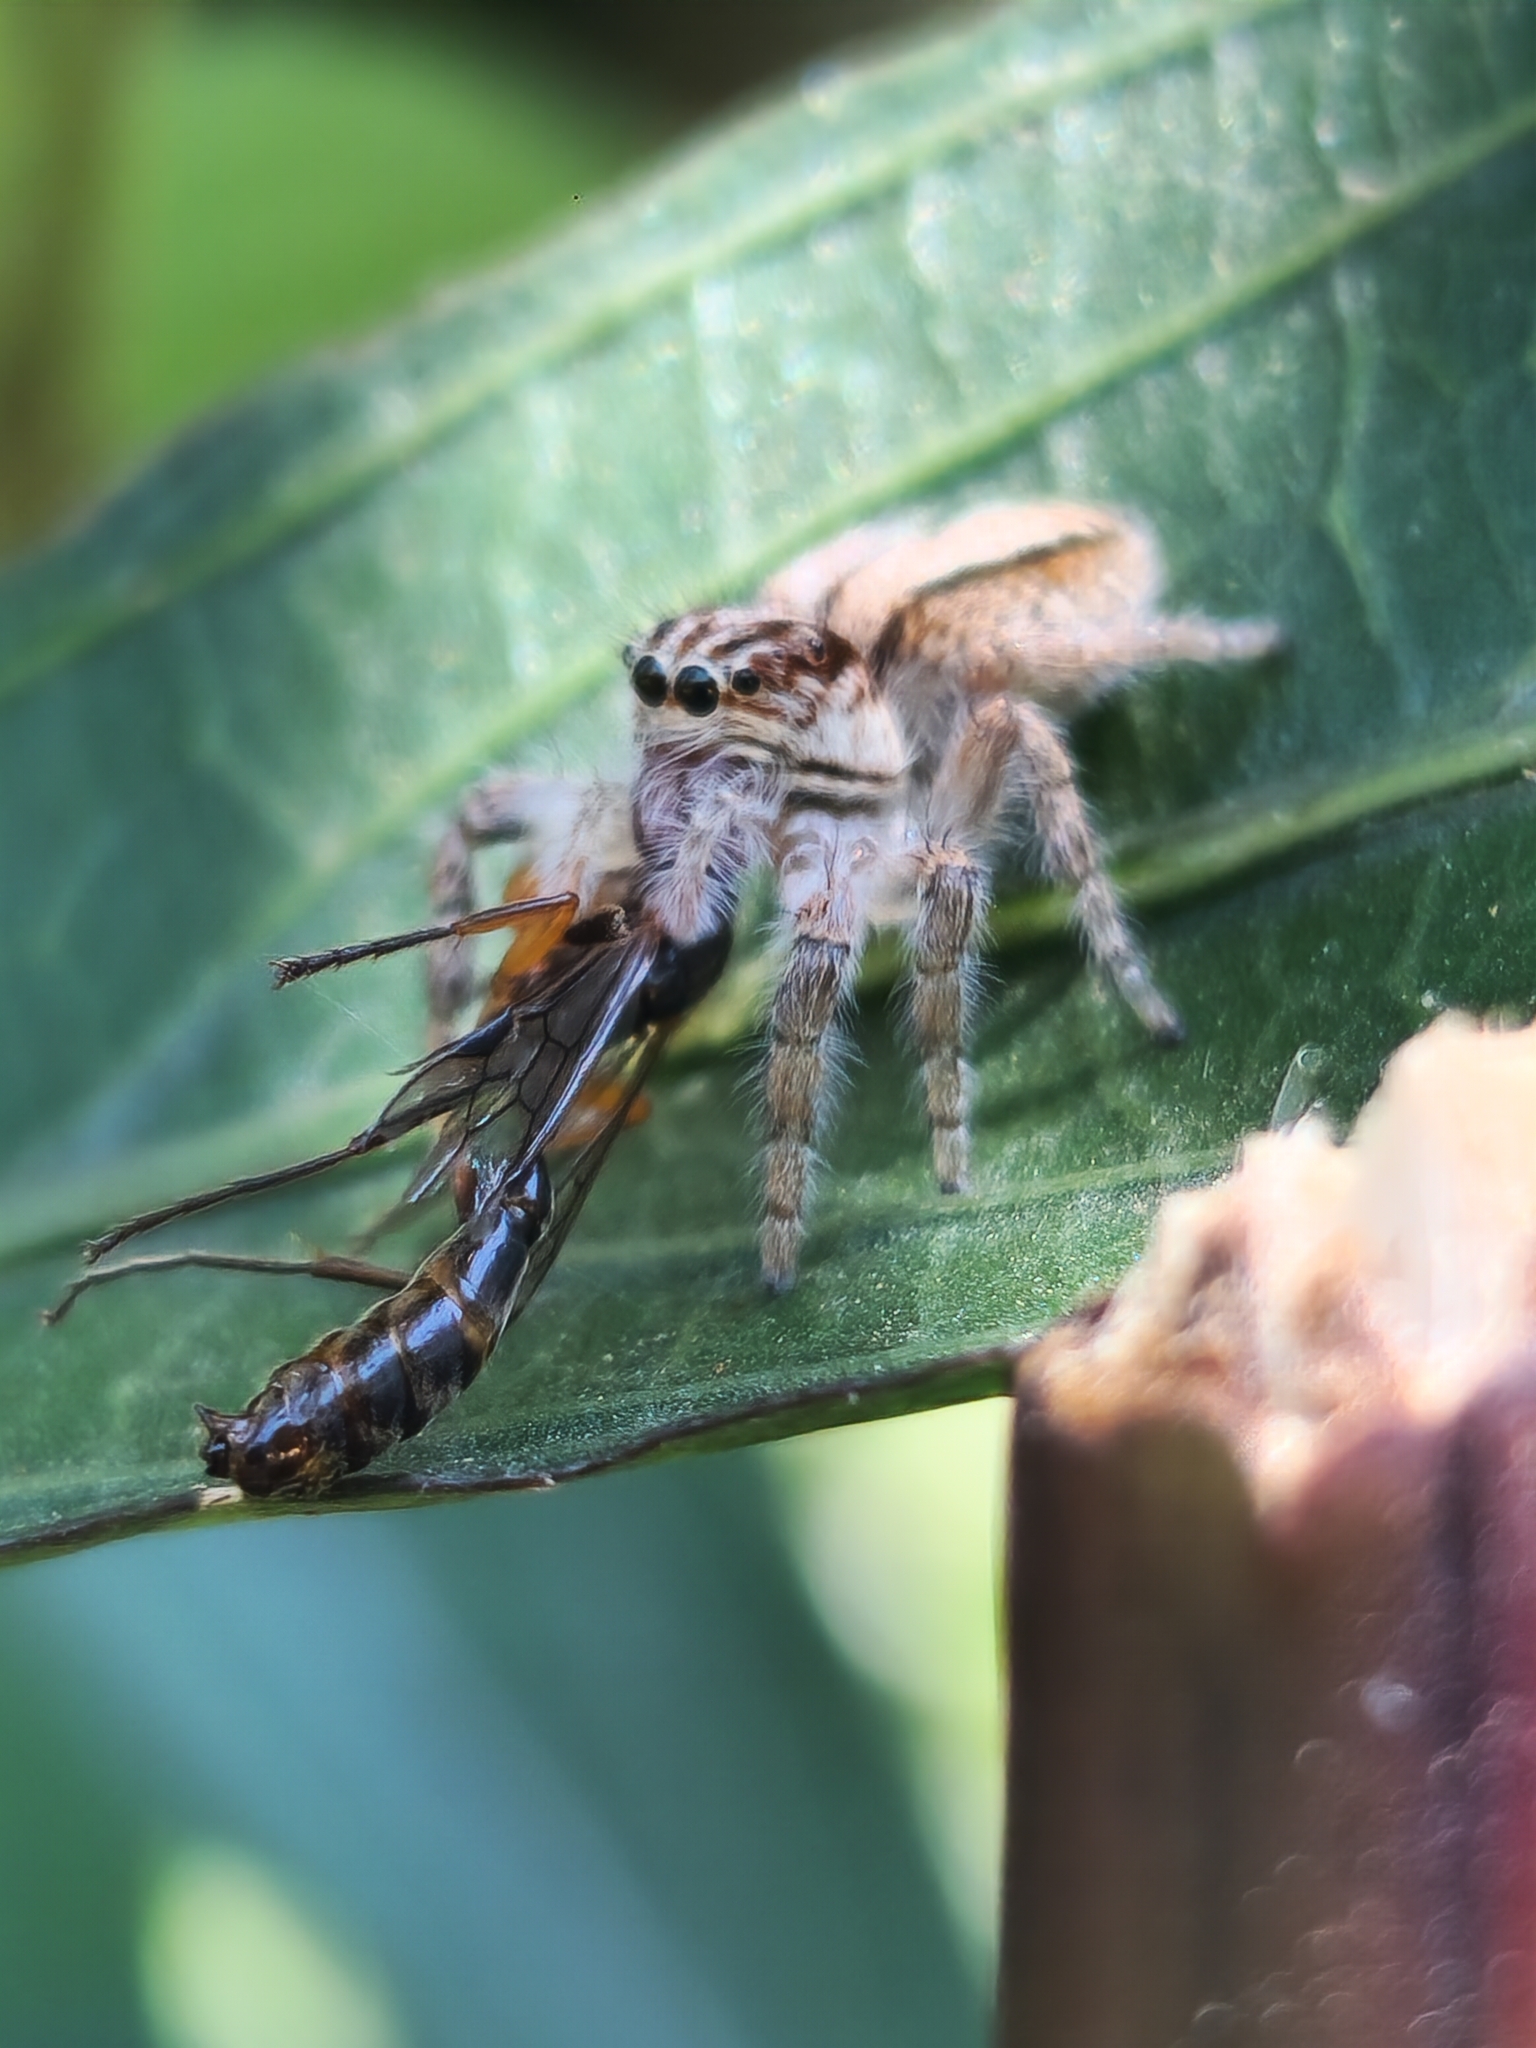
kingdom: Animalia
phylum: Arthropoda
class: Arachnida
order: Araneae
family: Salticidae
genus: Megafreya
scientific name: Megafreya sutrix
